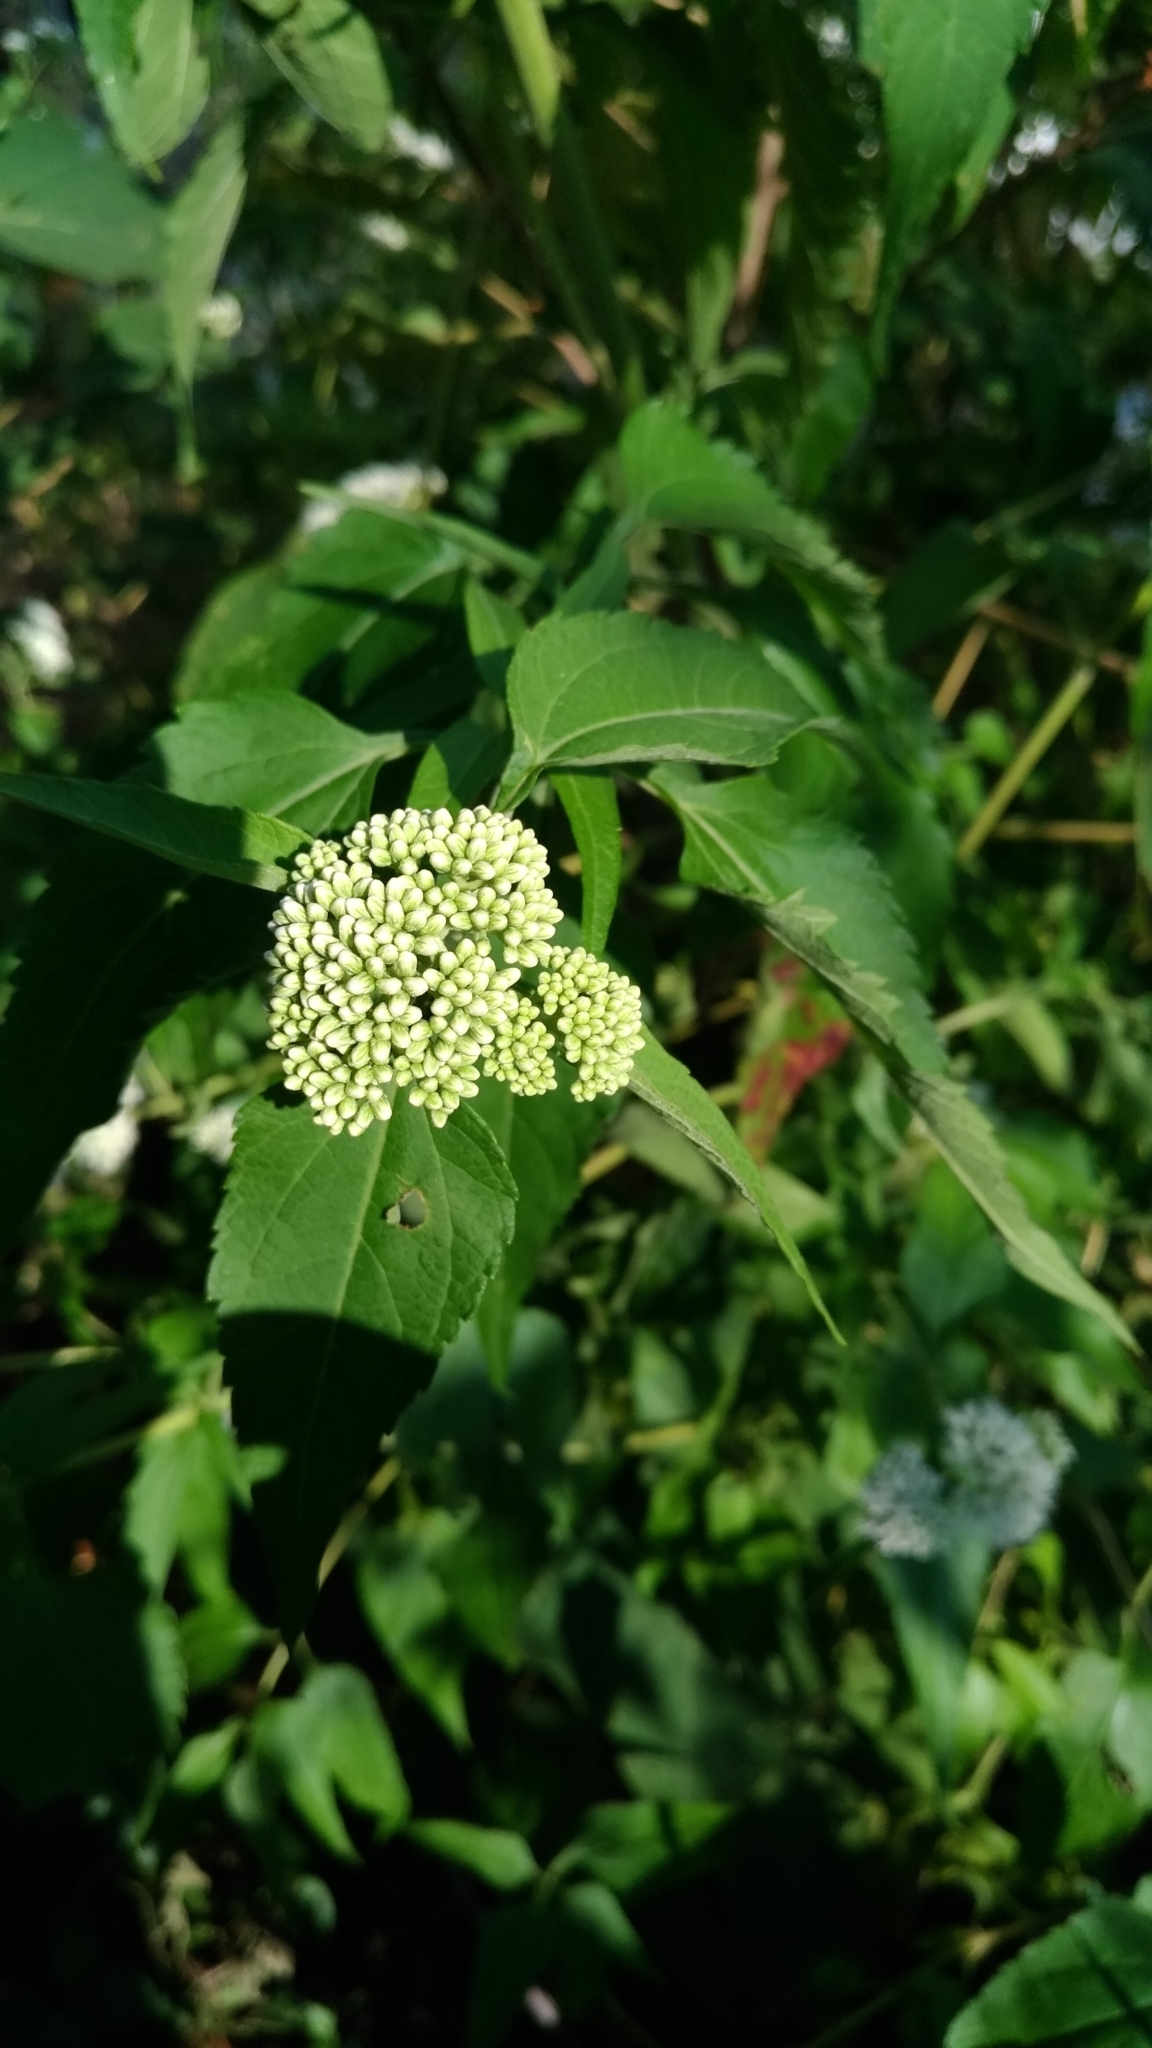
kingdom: Plantae
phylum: Tracheophyta
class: Magnoliopsida
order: Asterales
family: Asteraceae
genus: Austroeupatorium
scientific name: Austroeupatorium inulifolium
